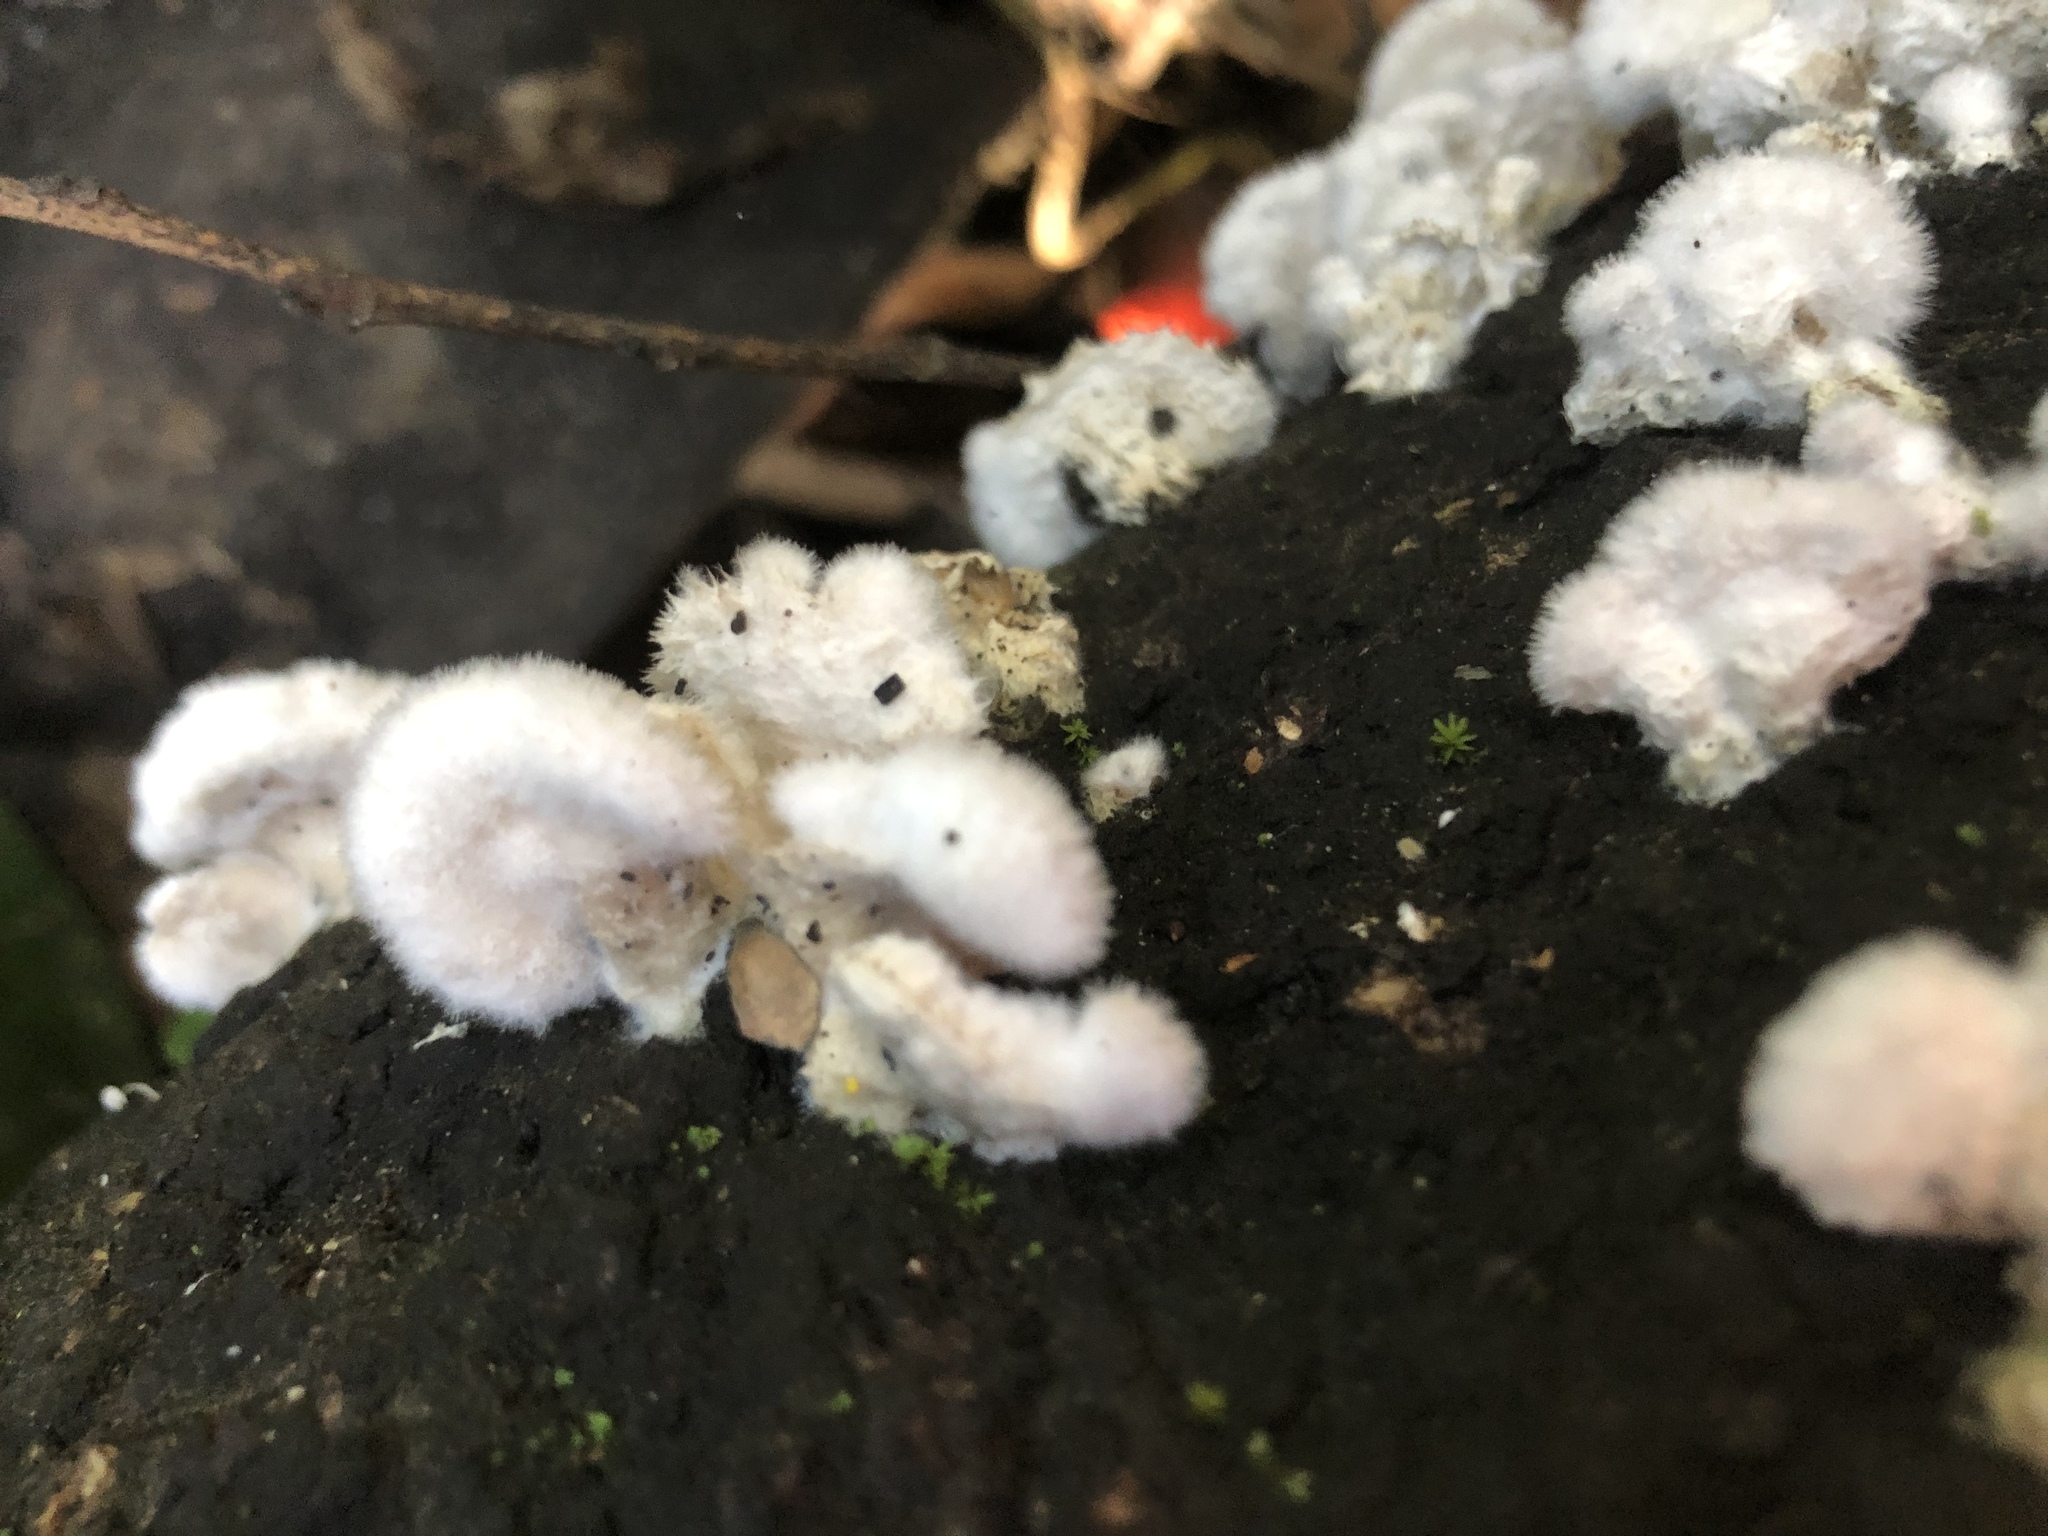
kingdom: Fungi
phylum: Basidiomycota
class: Agaricomycetes
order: Agaricales
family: Schizophyllaceae
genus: Schizophyllum
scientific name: Schizophyllum commune
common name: Common porecrust
